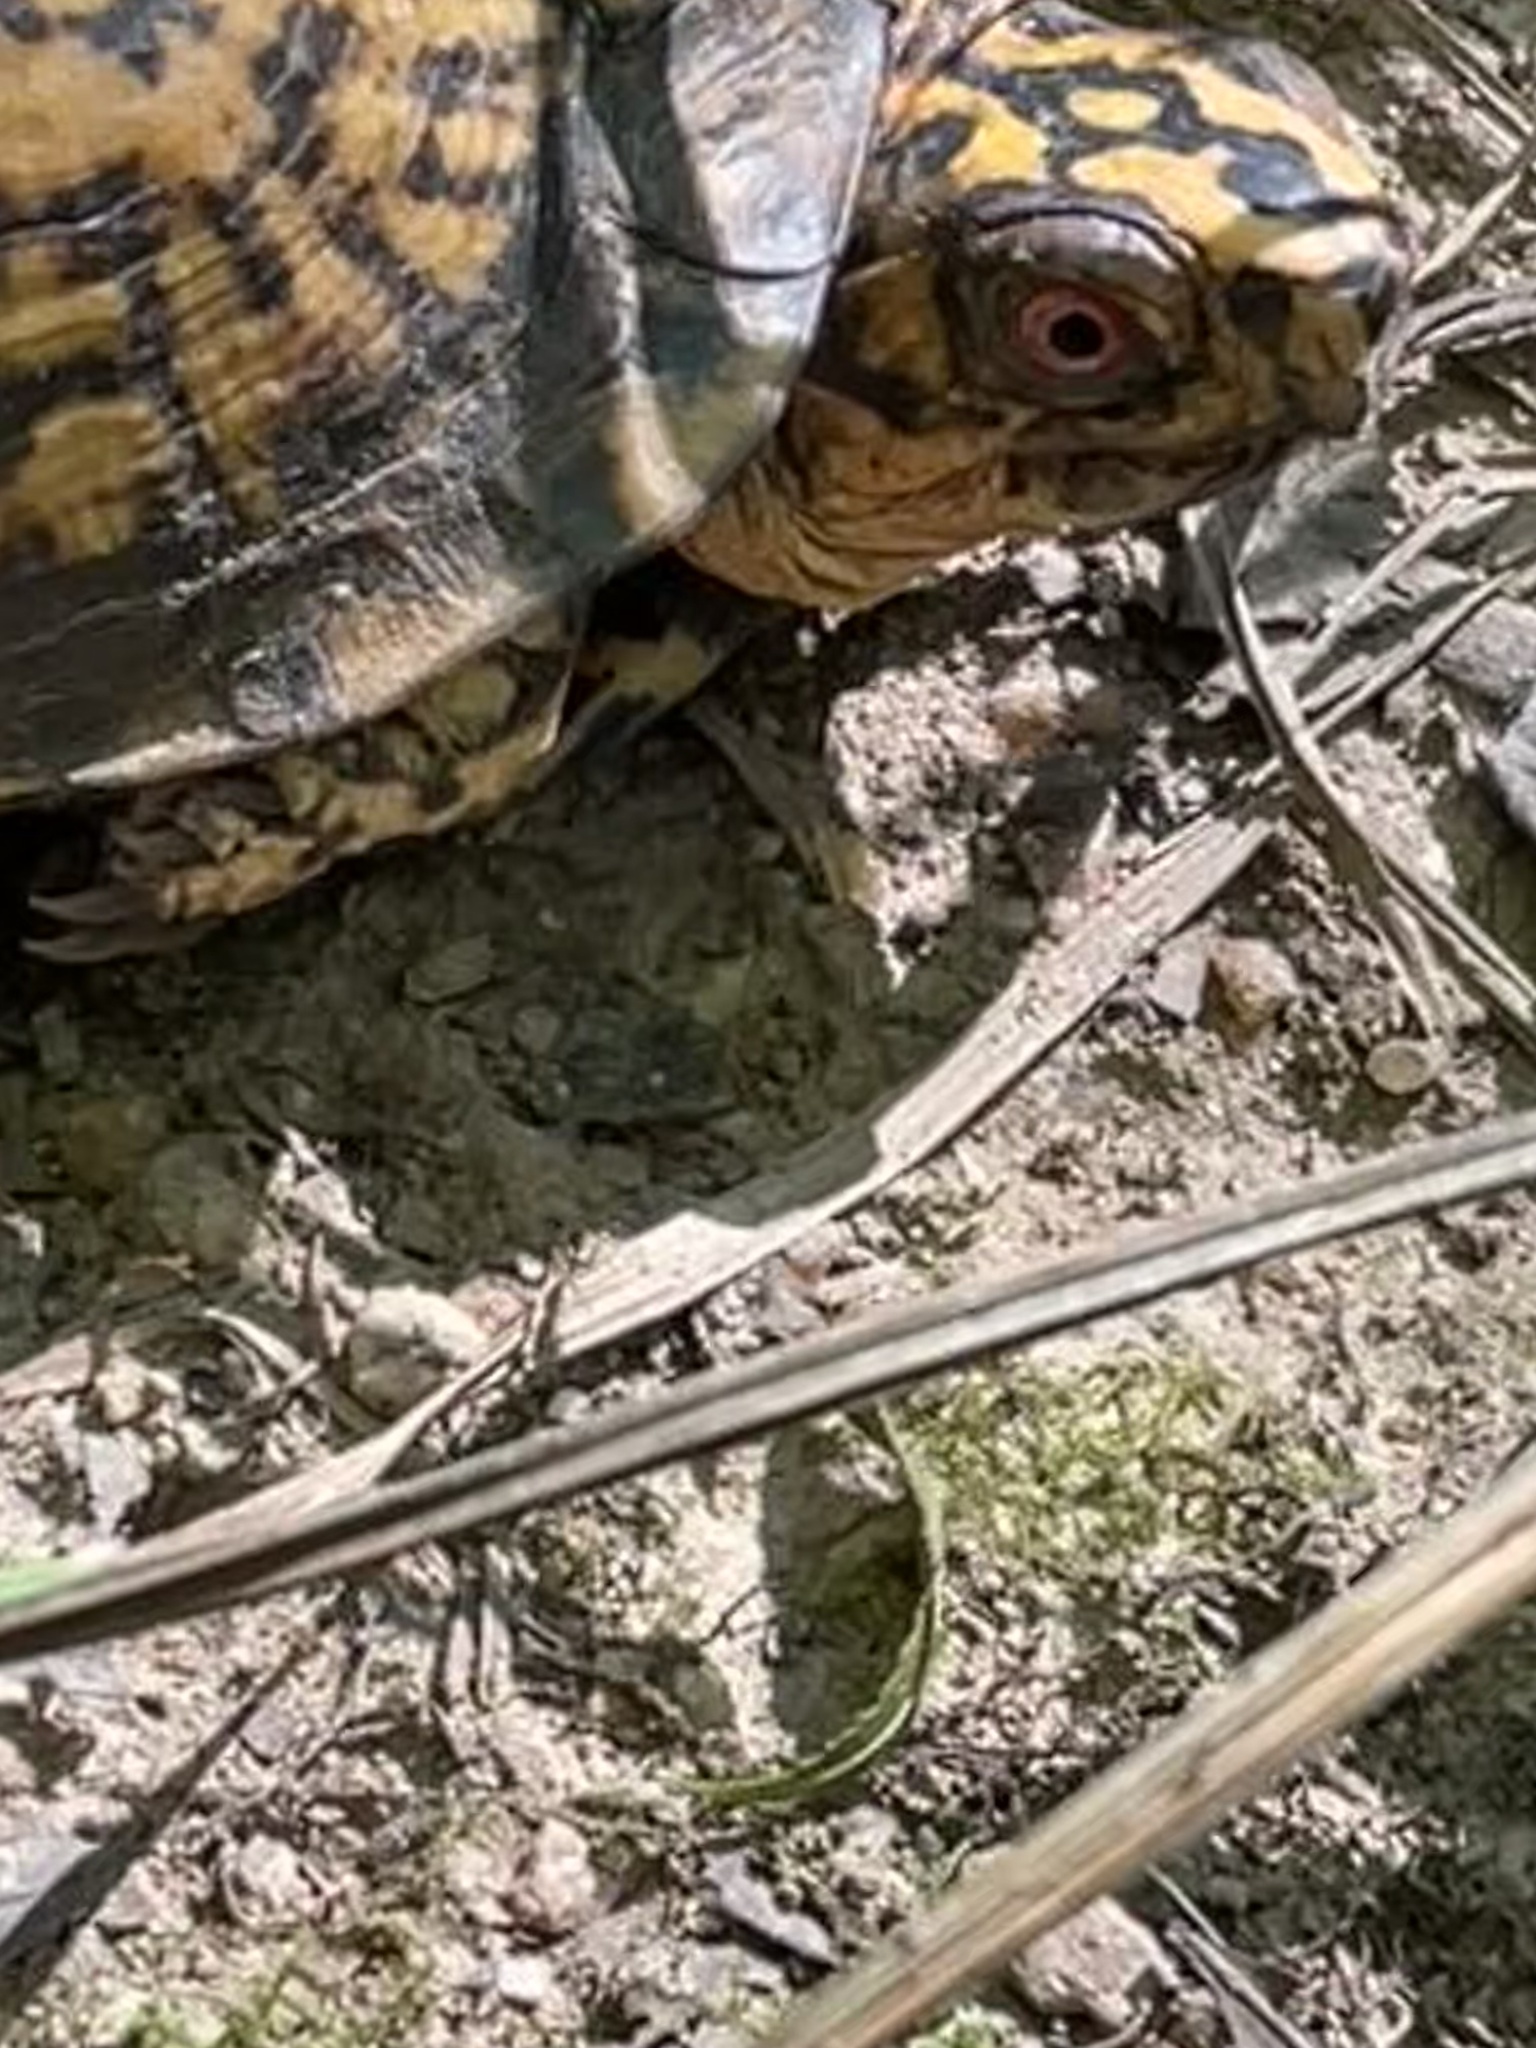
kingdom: Animalia
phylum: Chordata
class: Testudines
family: Emydidae
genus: Terrapene
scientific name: Terrapene carolina
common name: Common box turtle
